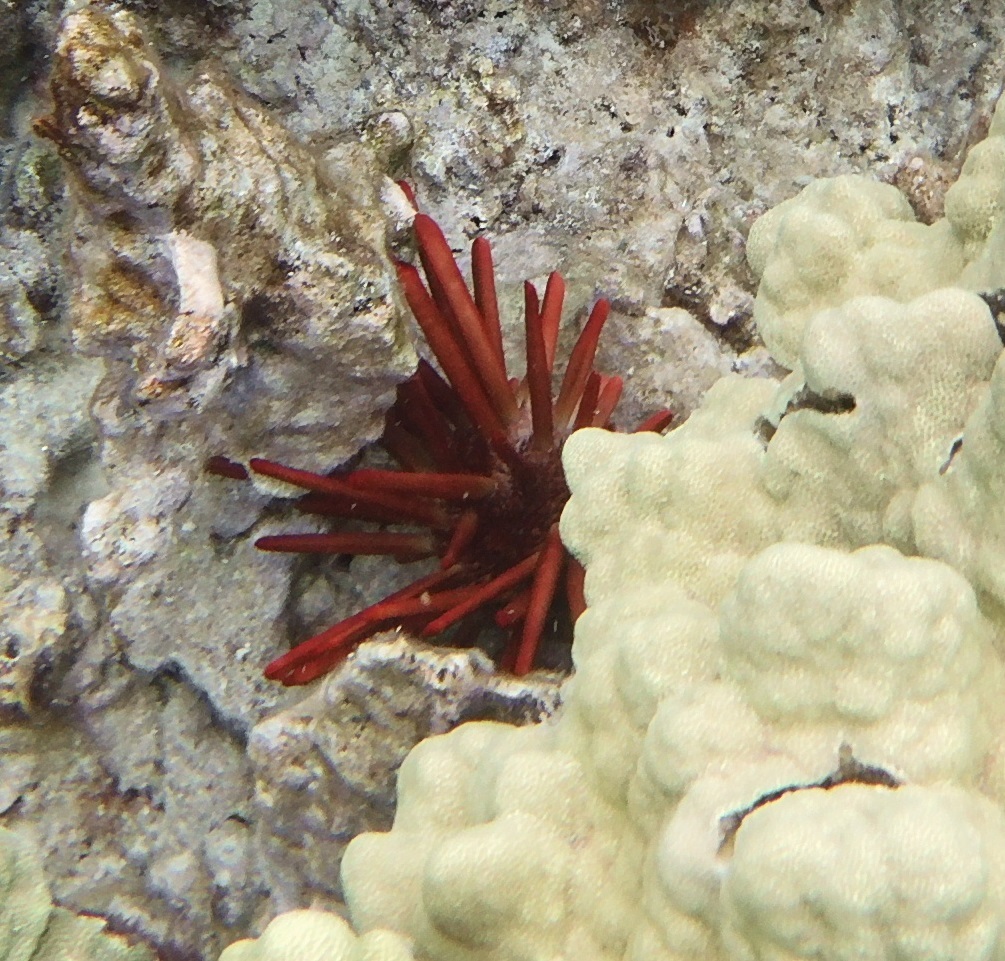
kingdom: Animalia
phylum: Echinodermata
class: Echinoidea
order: Camarodonta
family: Echinometridae
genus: Heterocentrotus
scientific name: Heterocentrotus mamillatus
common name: Slate pencil urchin
